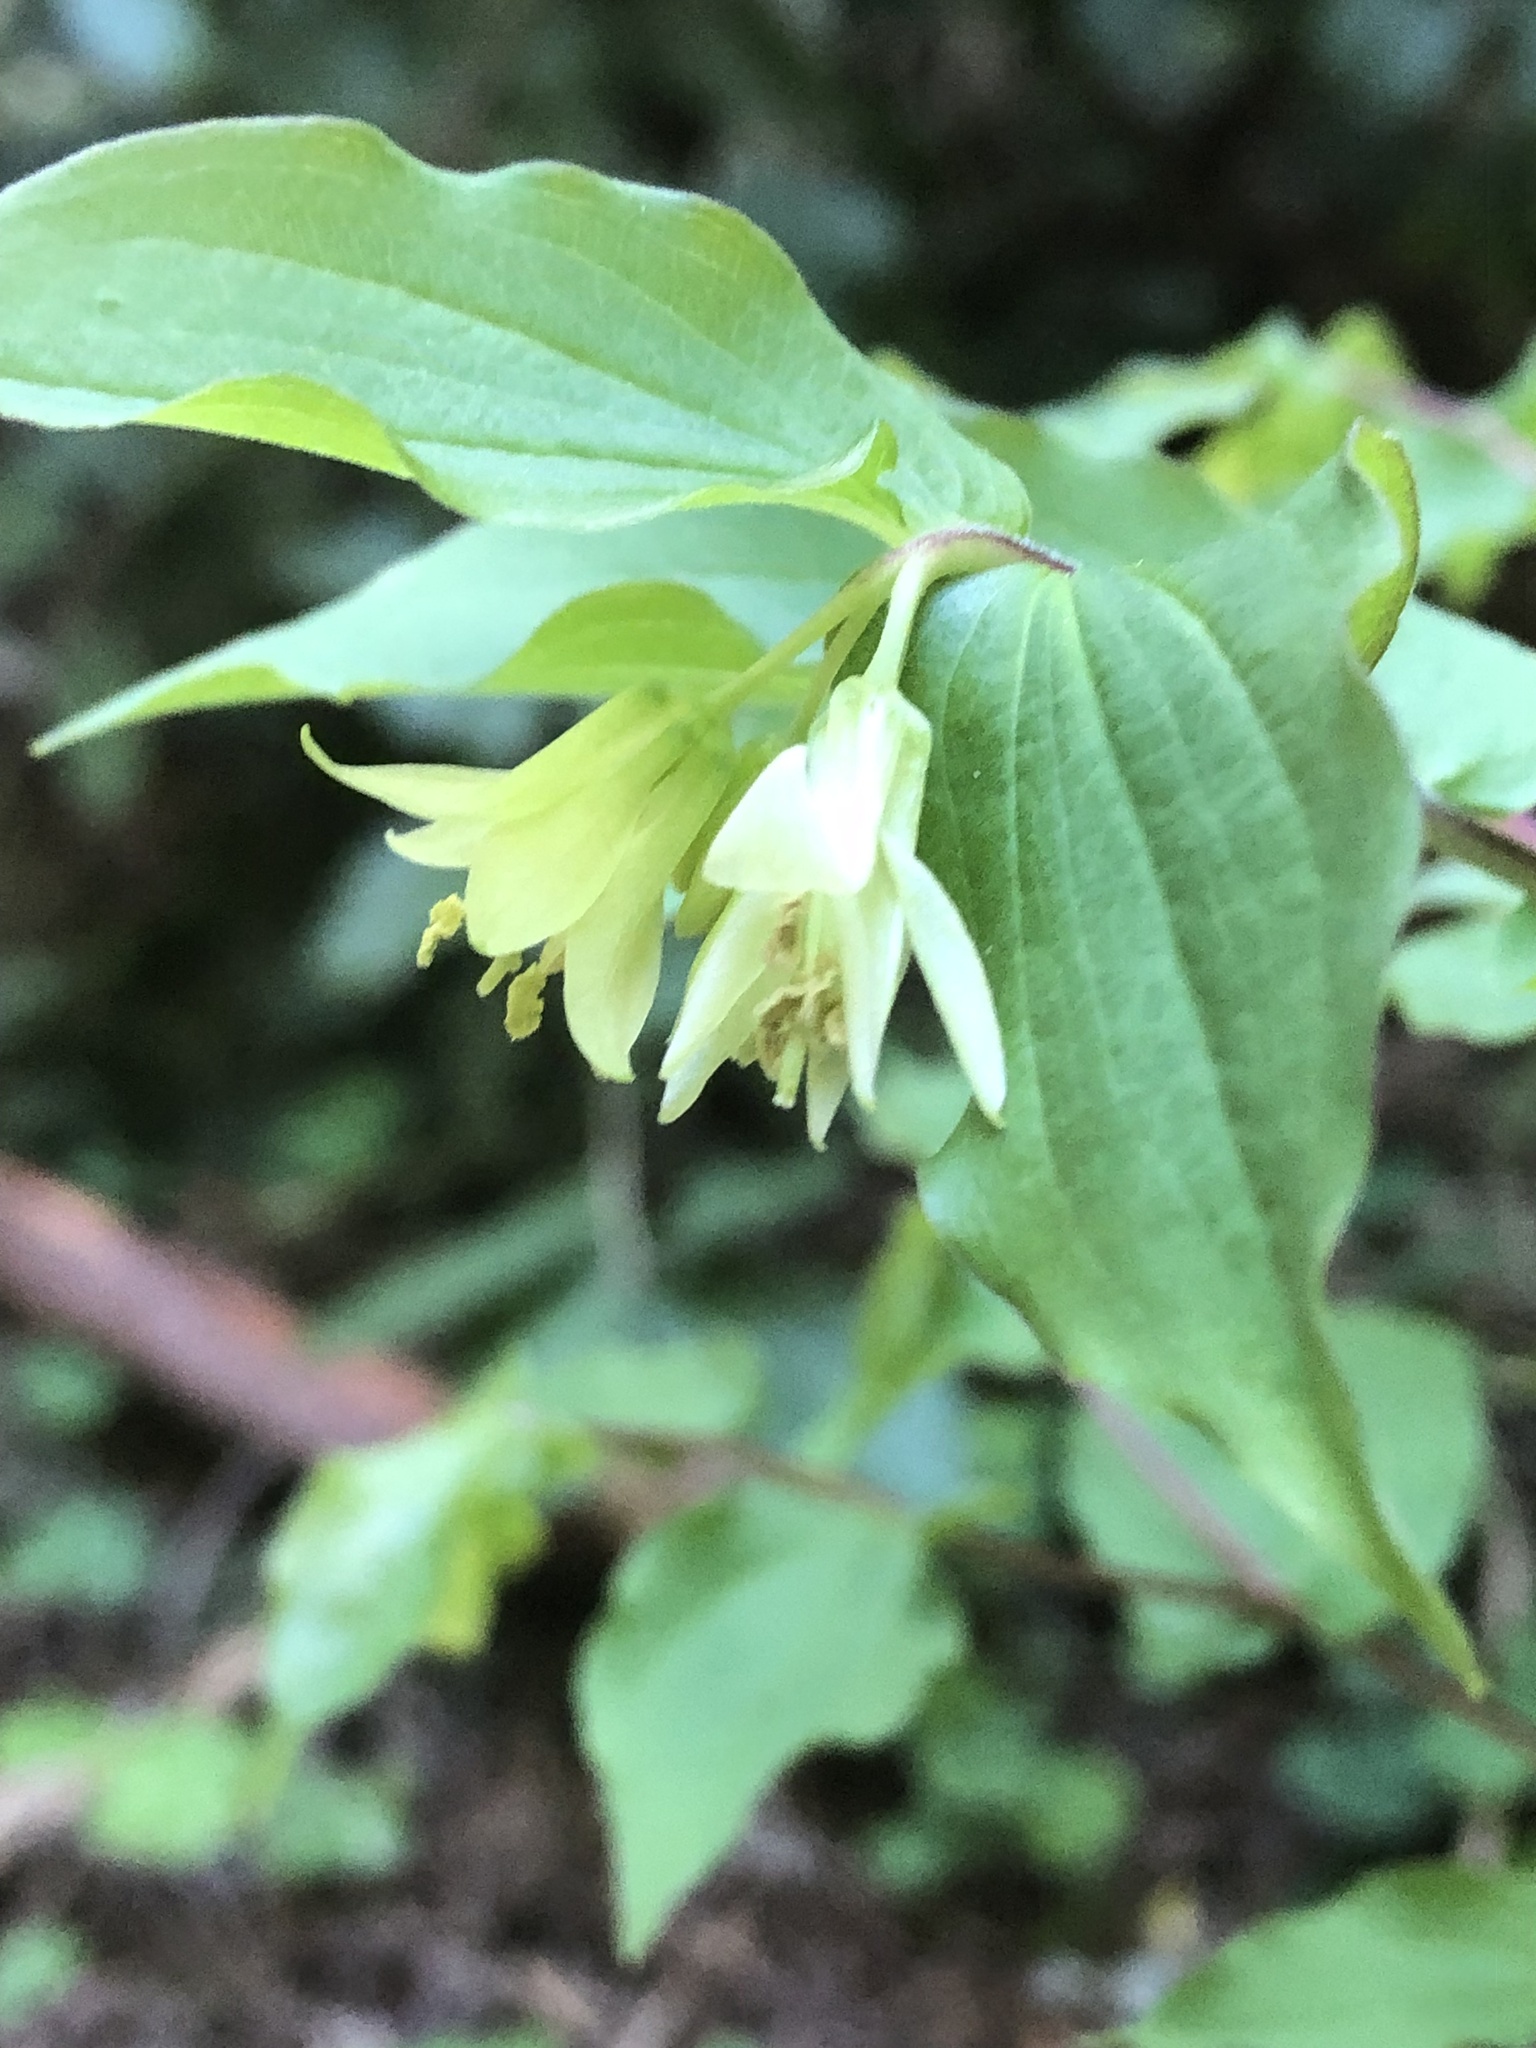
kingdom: Plantae
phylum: Tracheophyta
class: Liliopsida
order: Liliales
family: Liliaceae
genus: Prosartes
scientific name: Prosartes hookeri
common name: Fairy-bells
